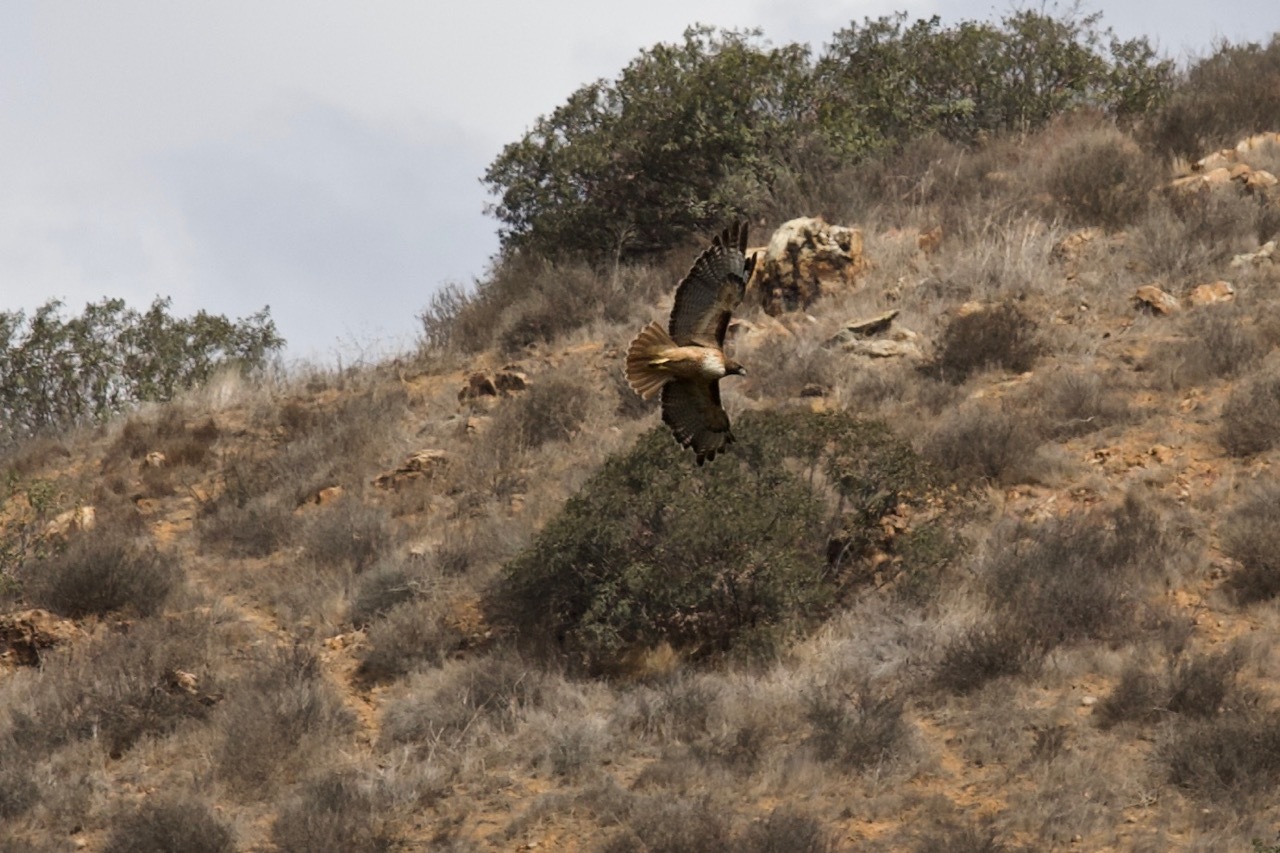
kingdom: Animalia
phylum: Chordata
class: Aves
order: Accipitriformes
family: Accipitridae
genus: Buteo
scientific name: Buteo jamaicensis
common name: Red-tailed hawk
